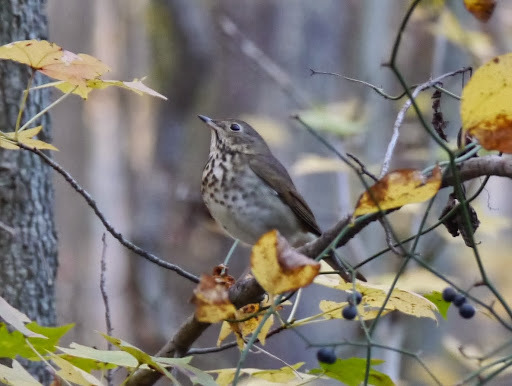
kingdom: Animalia
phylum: Chordata
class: Aves
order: Passeriformes
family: Turdidae
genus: Catharus
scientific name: Catharus guttatus
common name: Hermit thrush
